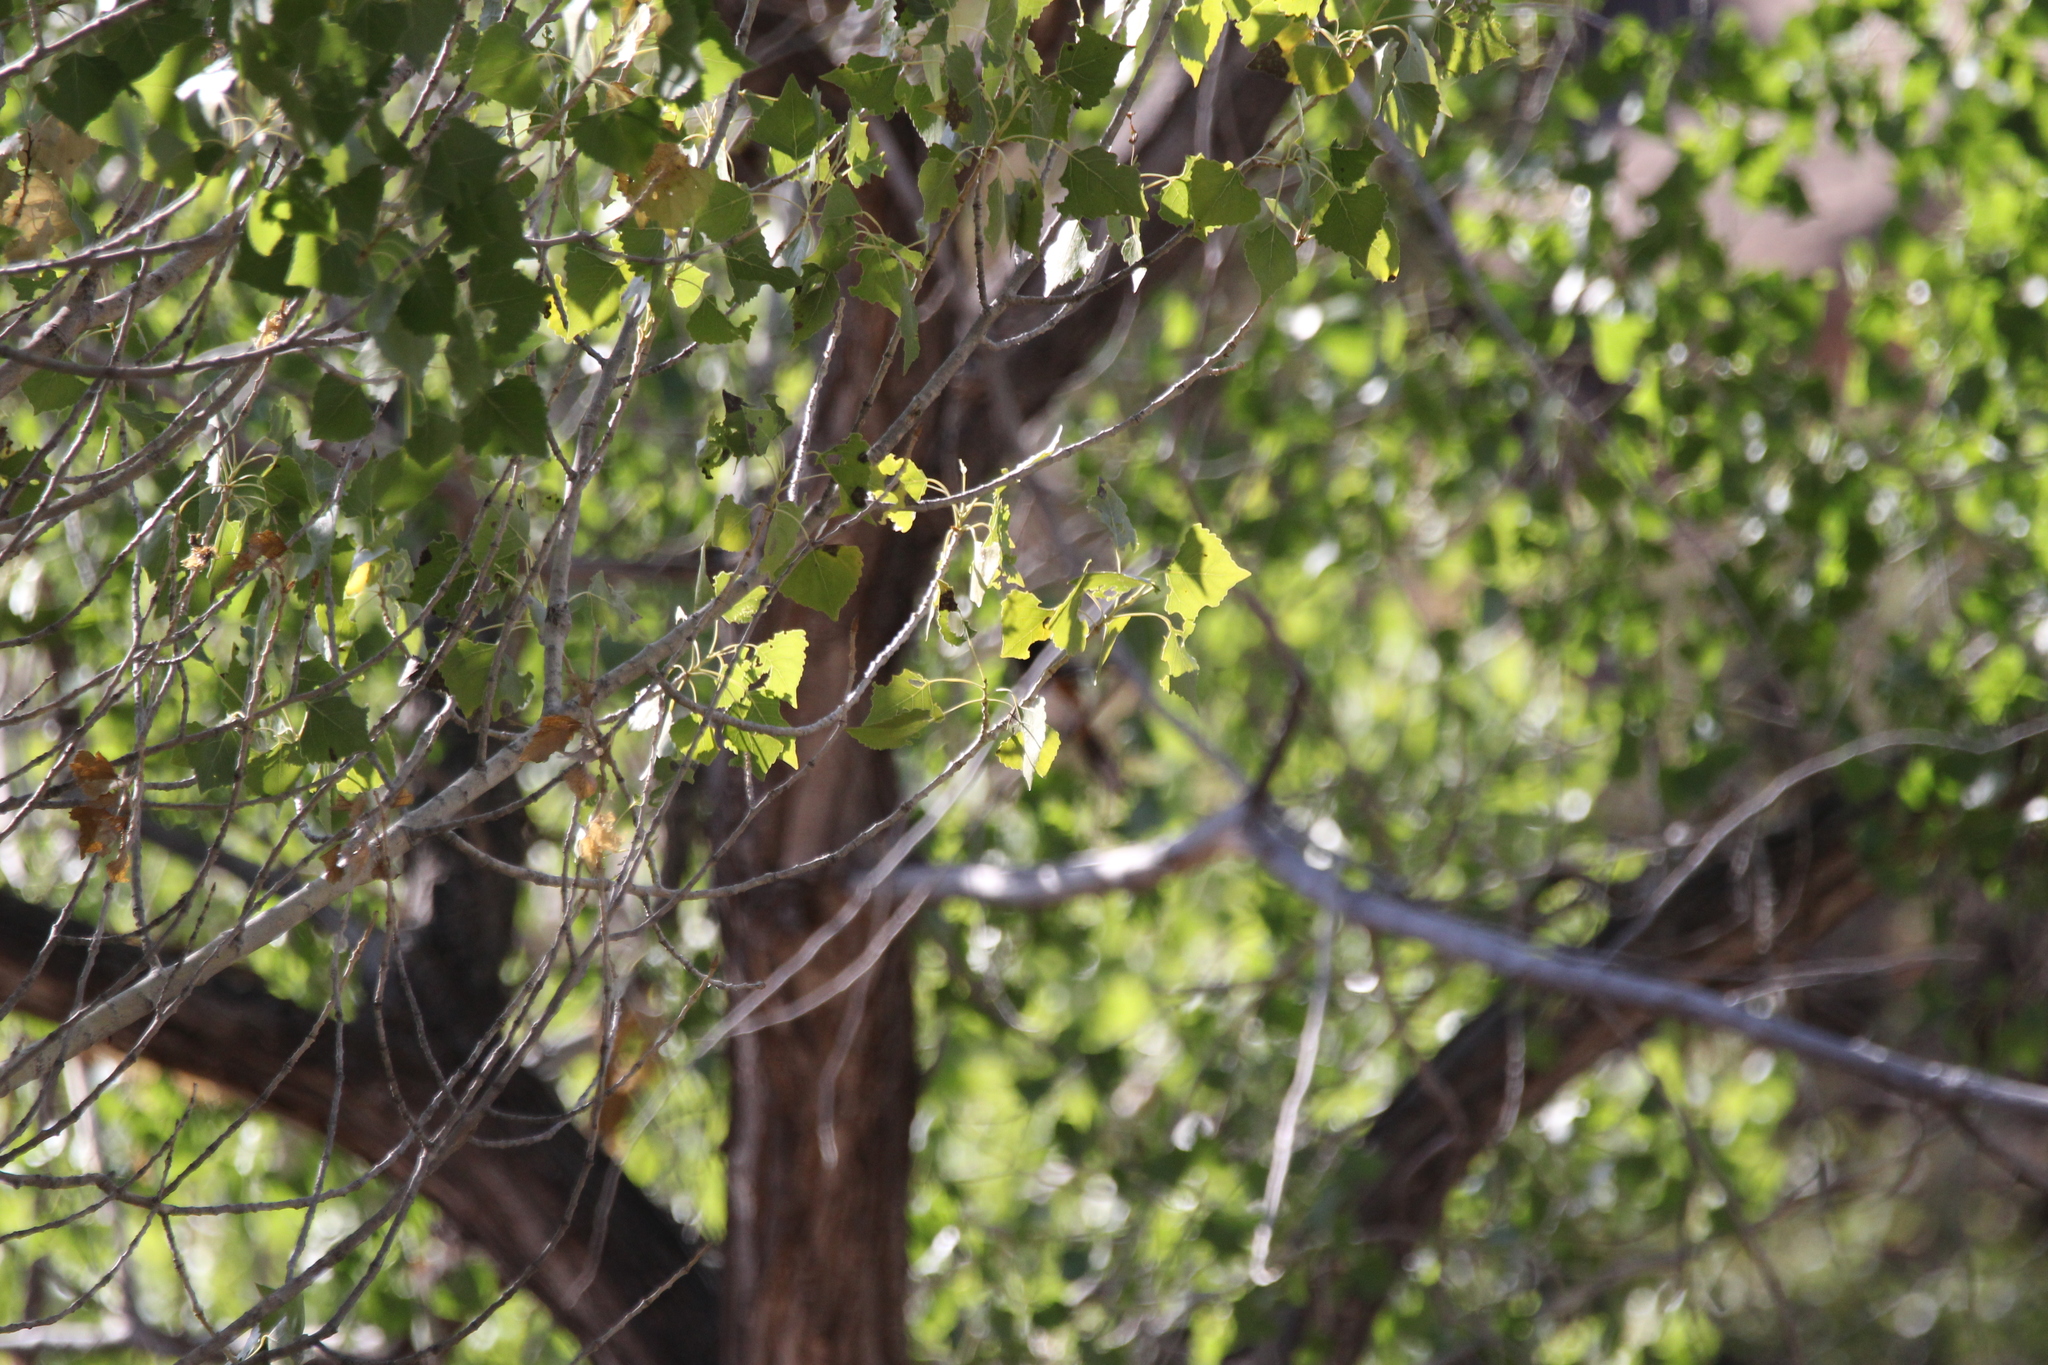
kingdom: Plantae
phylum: Tracheophyta
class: Magnoliopsida
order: Malpighiales
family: Salicaceae
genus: Populus
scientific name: Populus fremontii
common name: Fremont's cottonwood
